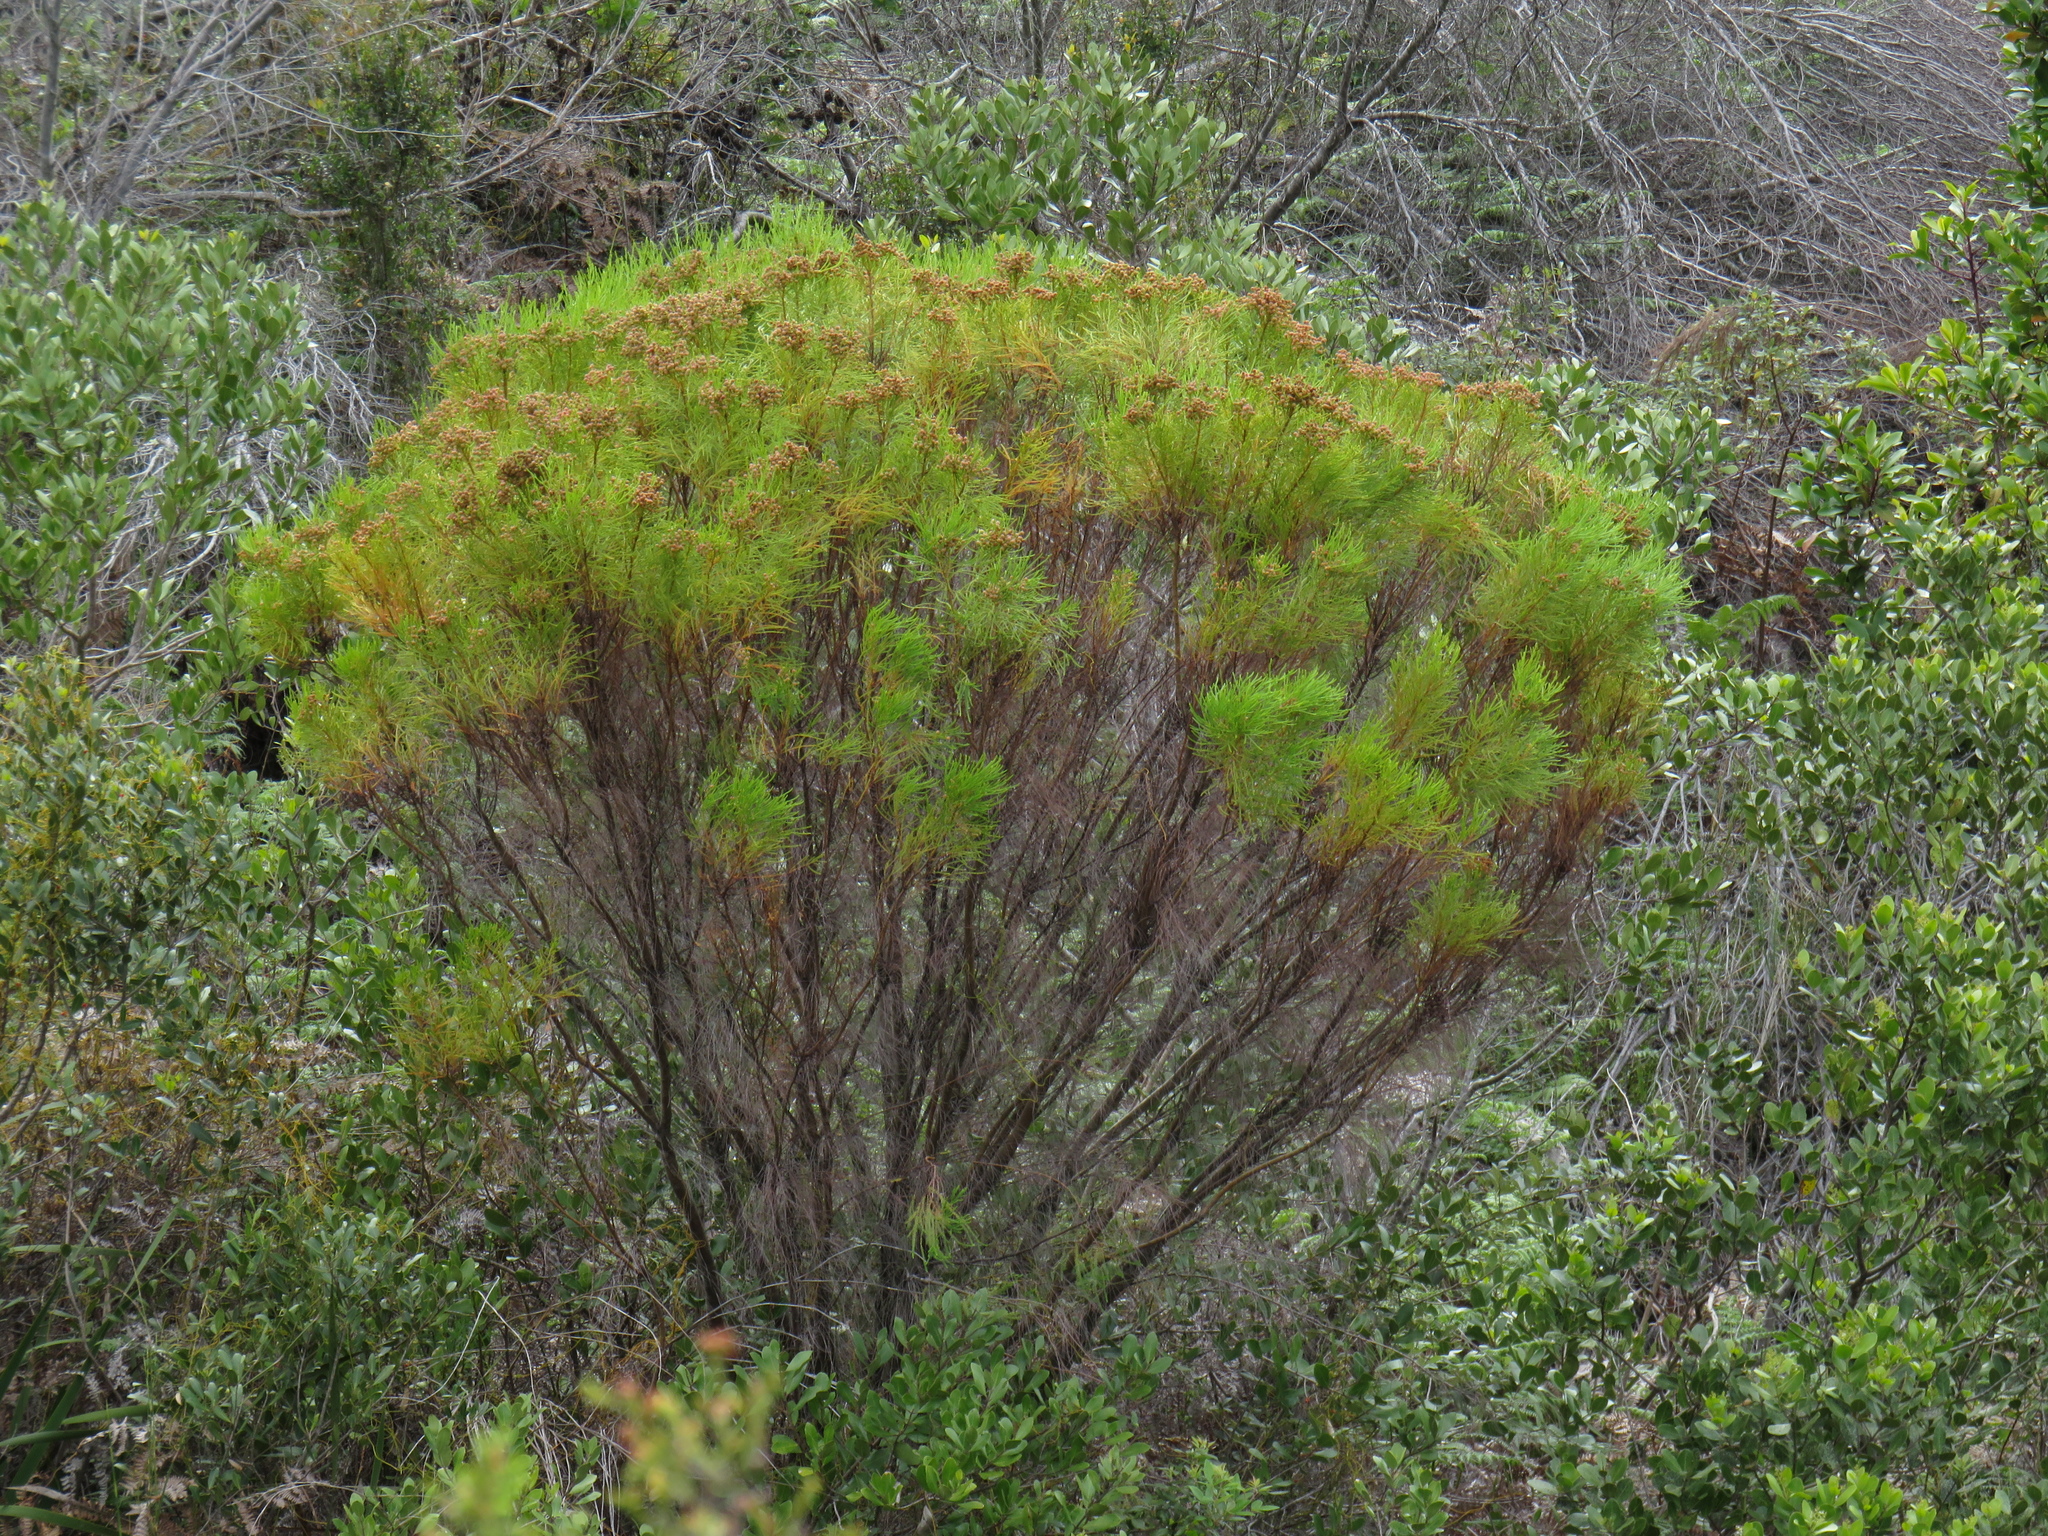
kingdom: Plantae
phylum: Tracheophyta
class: Magnoliopsida
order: Bruniales
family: Bruniaceae
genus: Berzelia
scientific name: Berzelia lanuginosa
